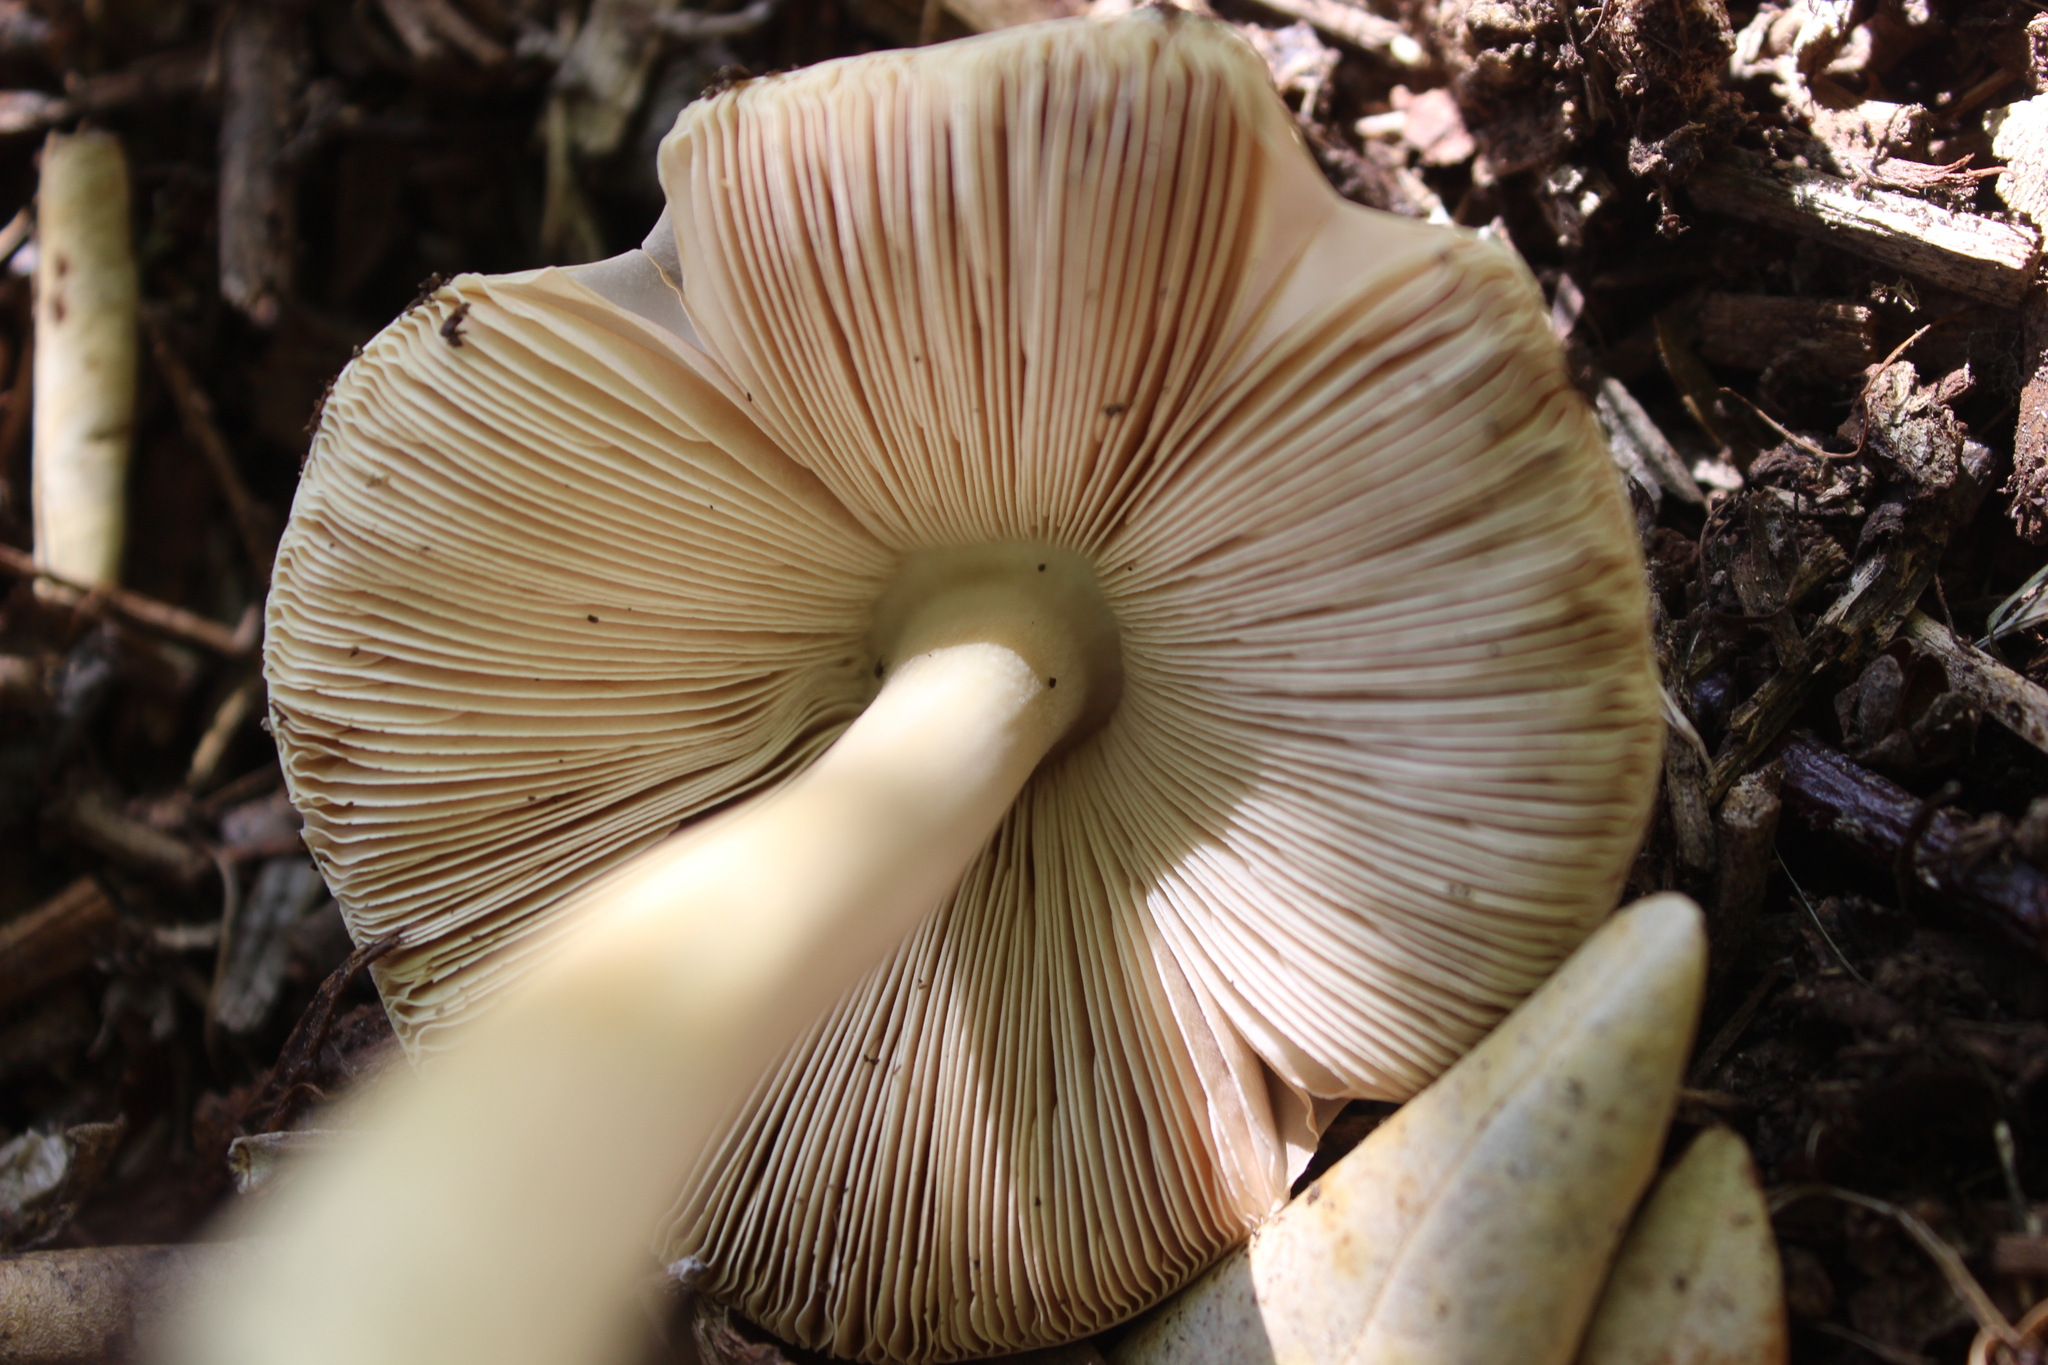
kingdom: Fungi
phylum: Basidiomycota
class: Agaricomycetes
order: Agaricales
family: Pluteaceae
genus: Volvopluteus
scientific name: Volvopluteus gloiocephalus
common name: Stubble rosegill
